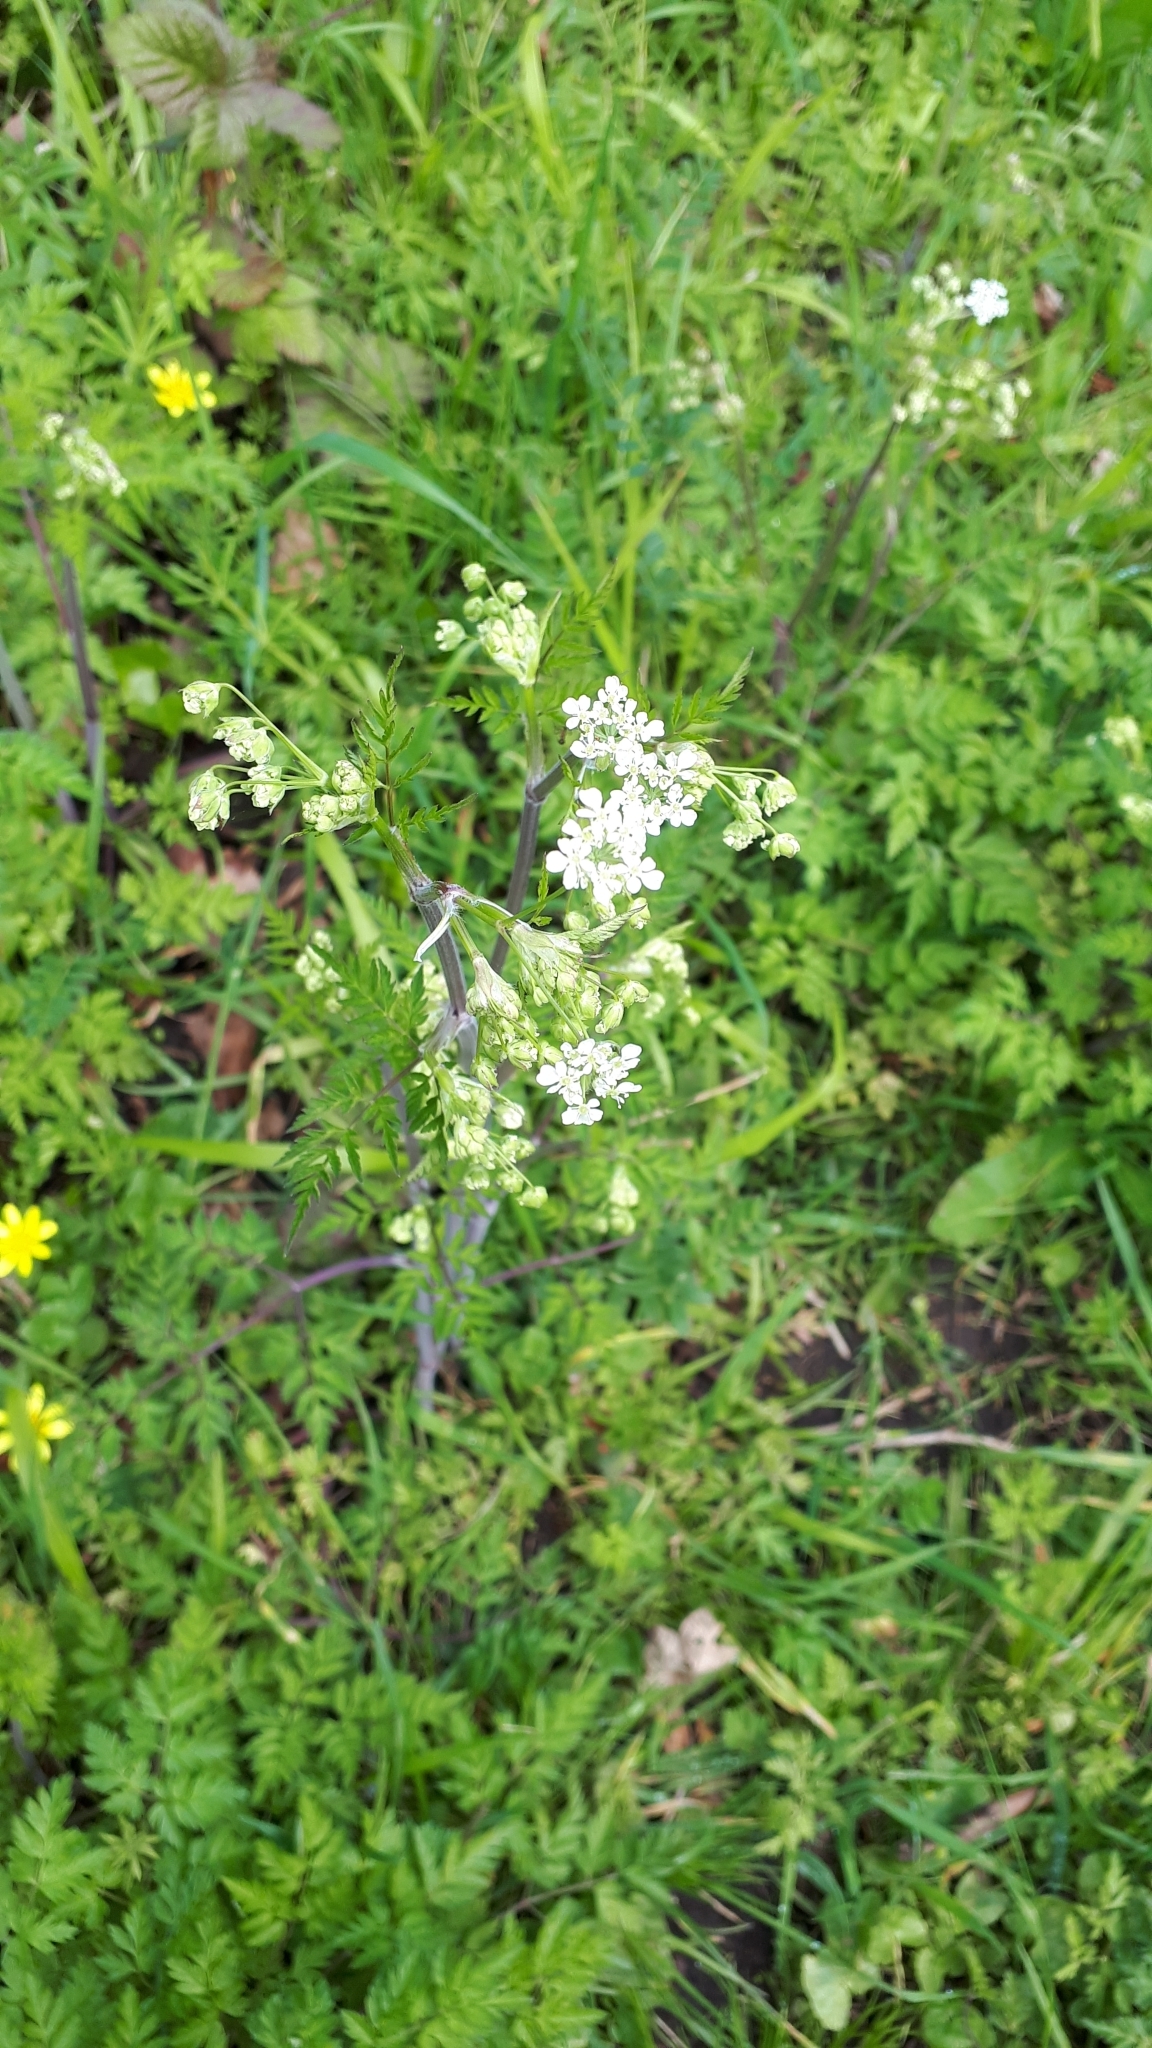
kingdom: Plantae
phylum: Tracheophyta
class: Magnoliopsida
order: Apiales
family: Apiaceae
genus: Anthriscus
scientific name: Anthriscus sylvestris
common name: Cow parsley
